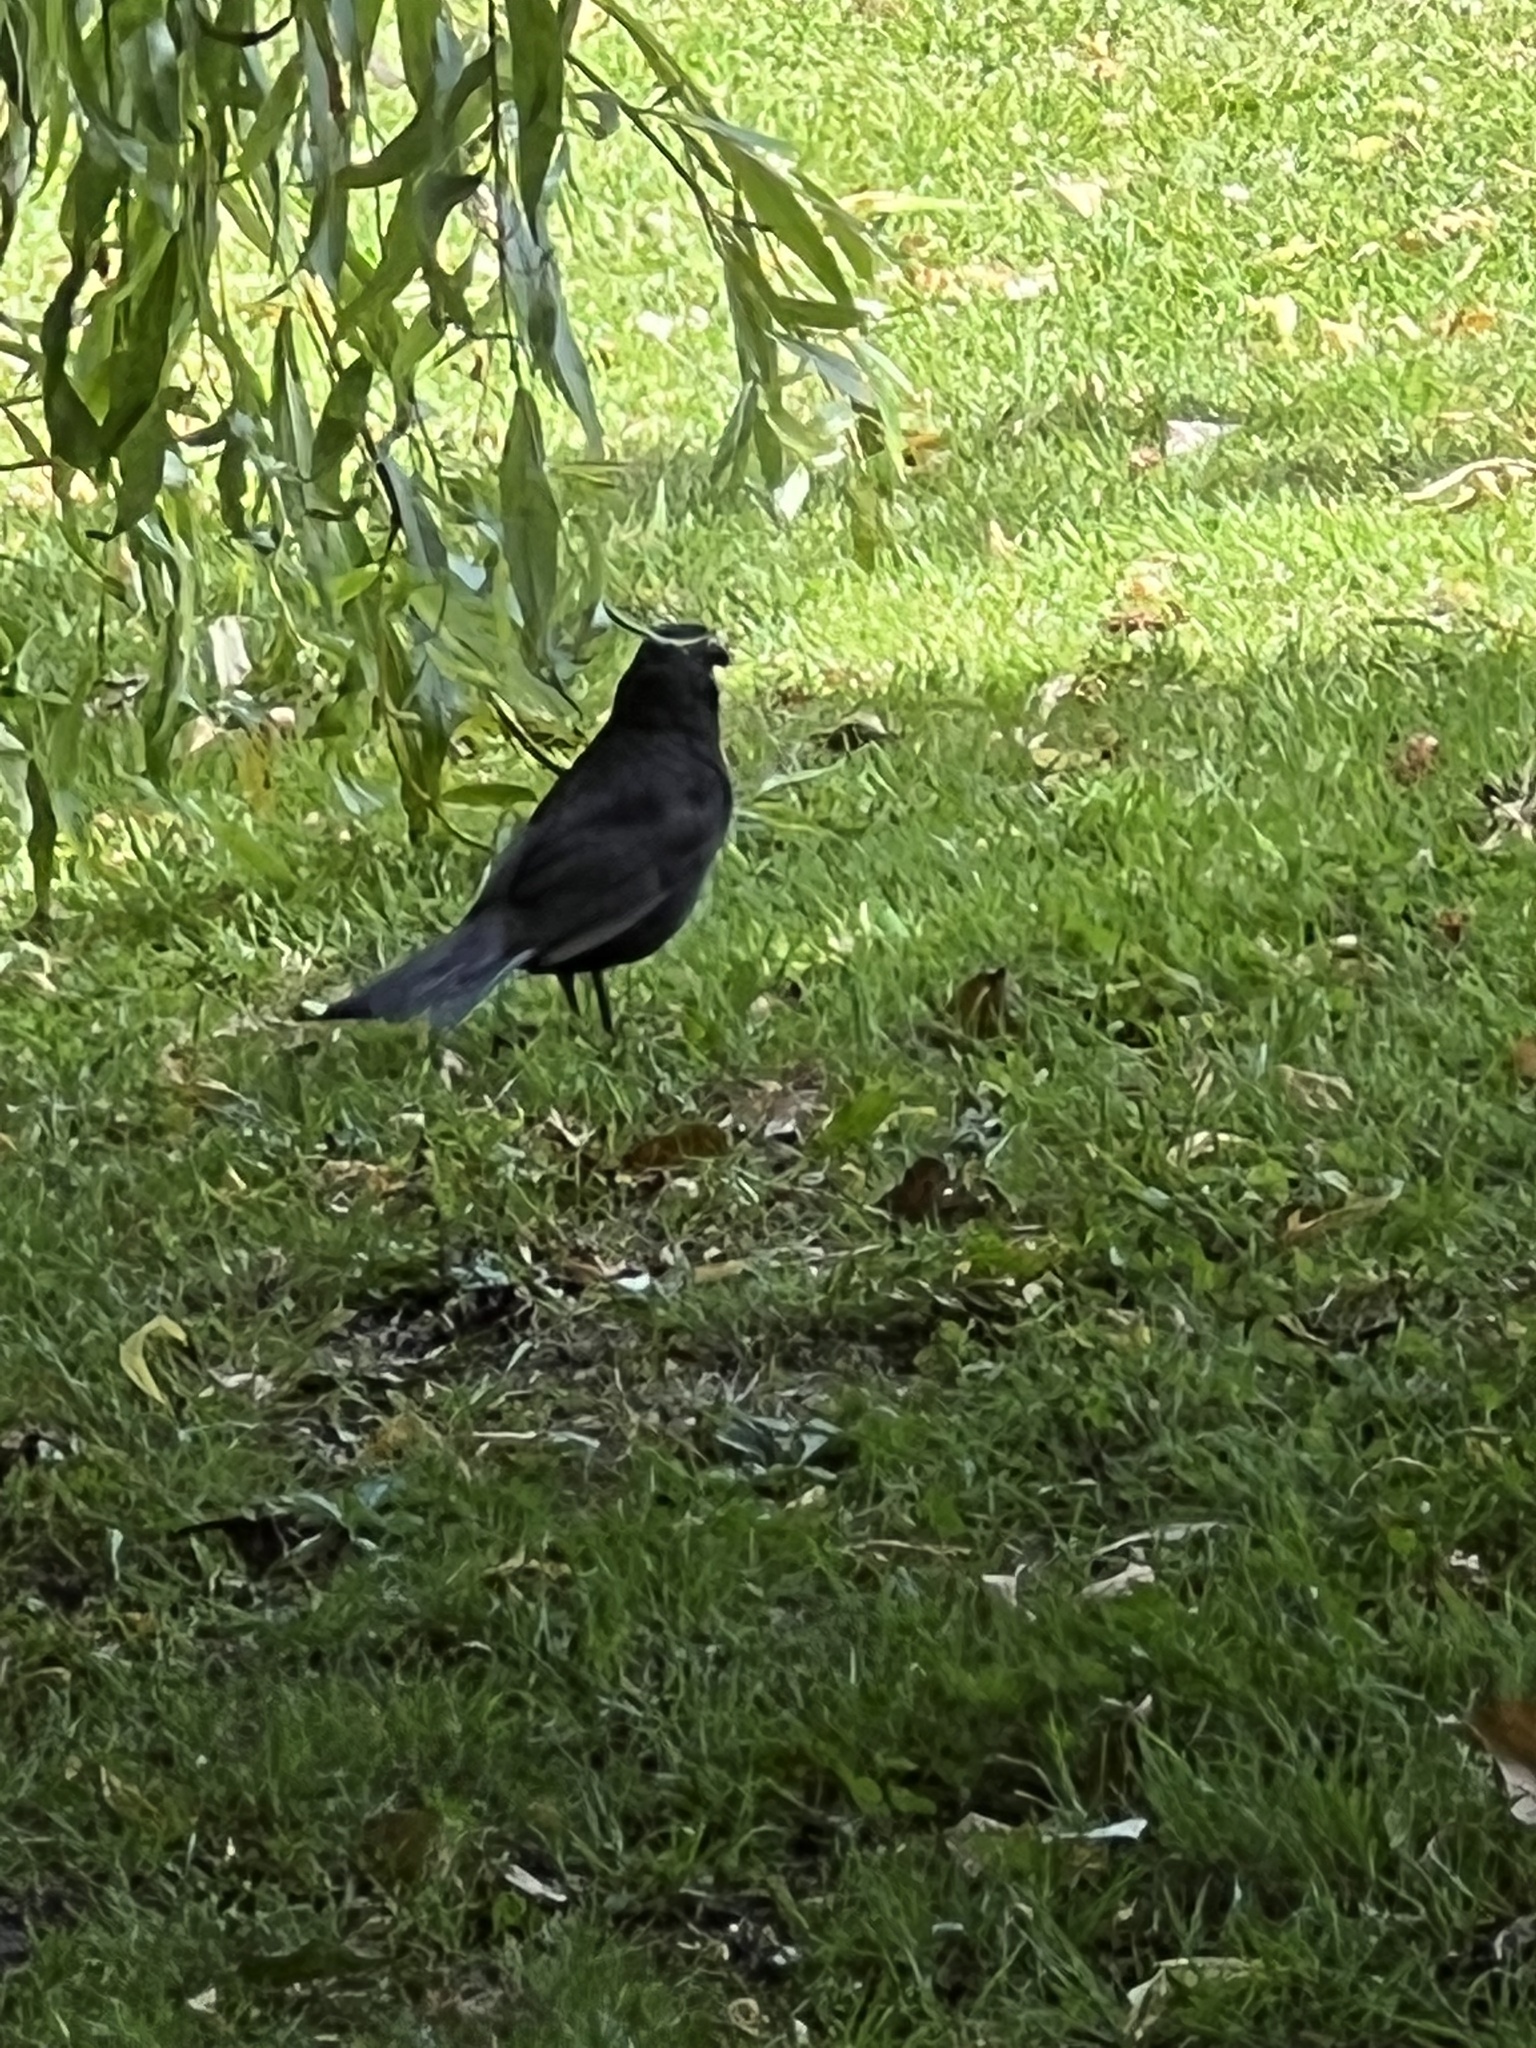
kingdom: Animalia
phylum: Chordata
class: Aves
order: Passeriformes
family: Turdidae
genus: Turdus
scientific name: Turdus merula
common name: Common blackbird
